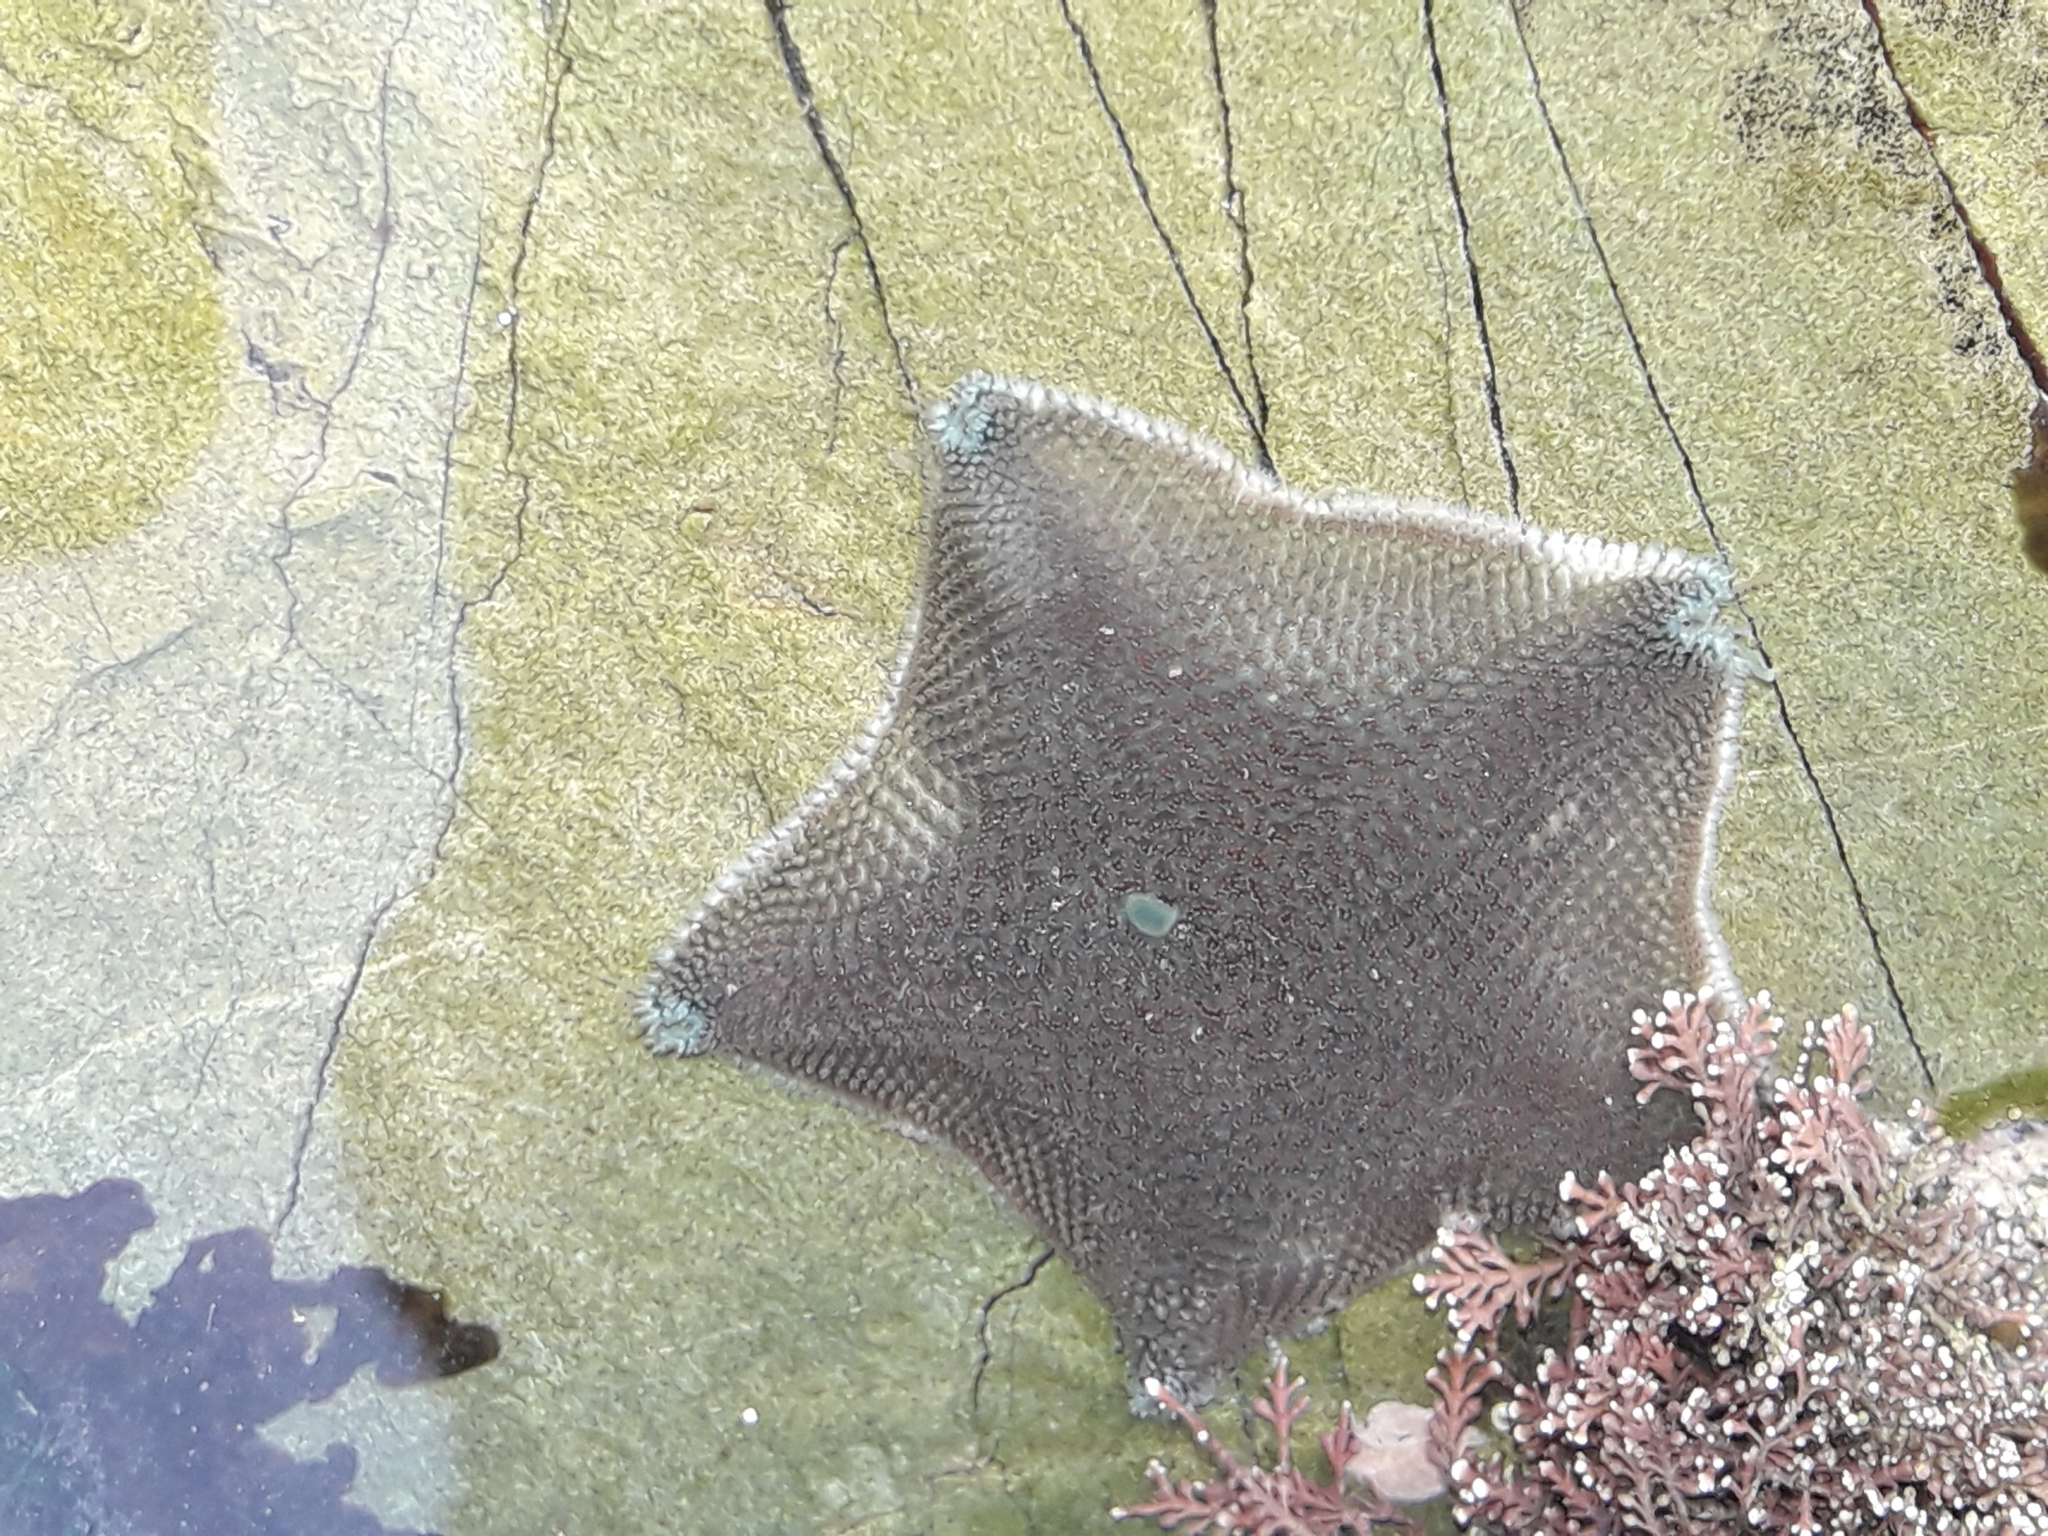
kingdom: Animalia
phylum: Echinodermata
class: Asteroidea
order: Valvatida
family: Asterinidae
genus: Patiriella
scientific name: Patiriella regularis
